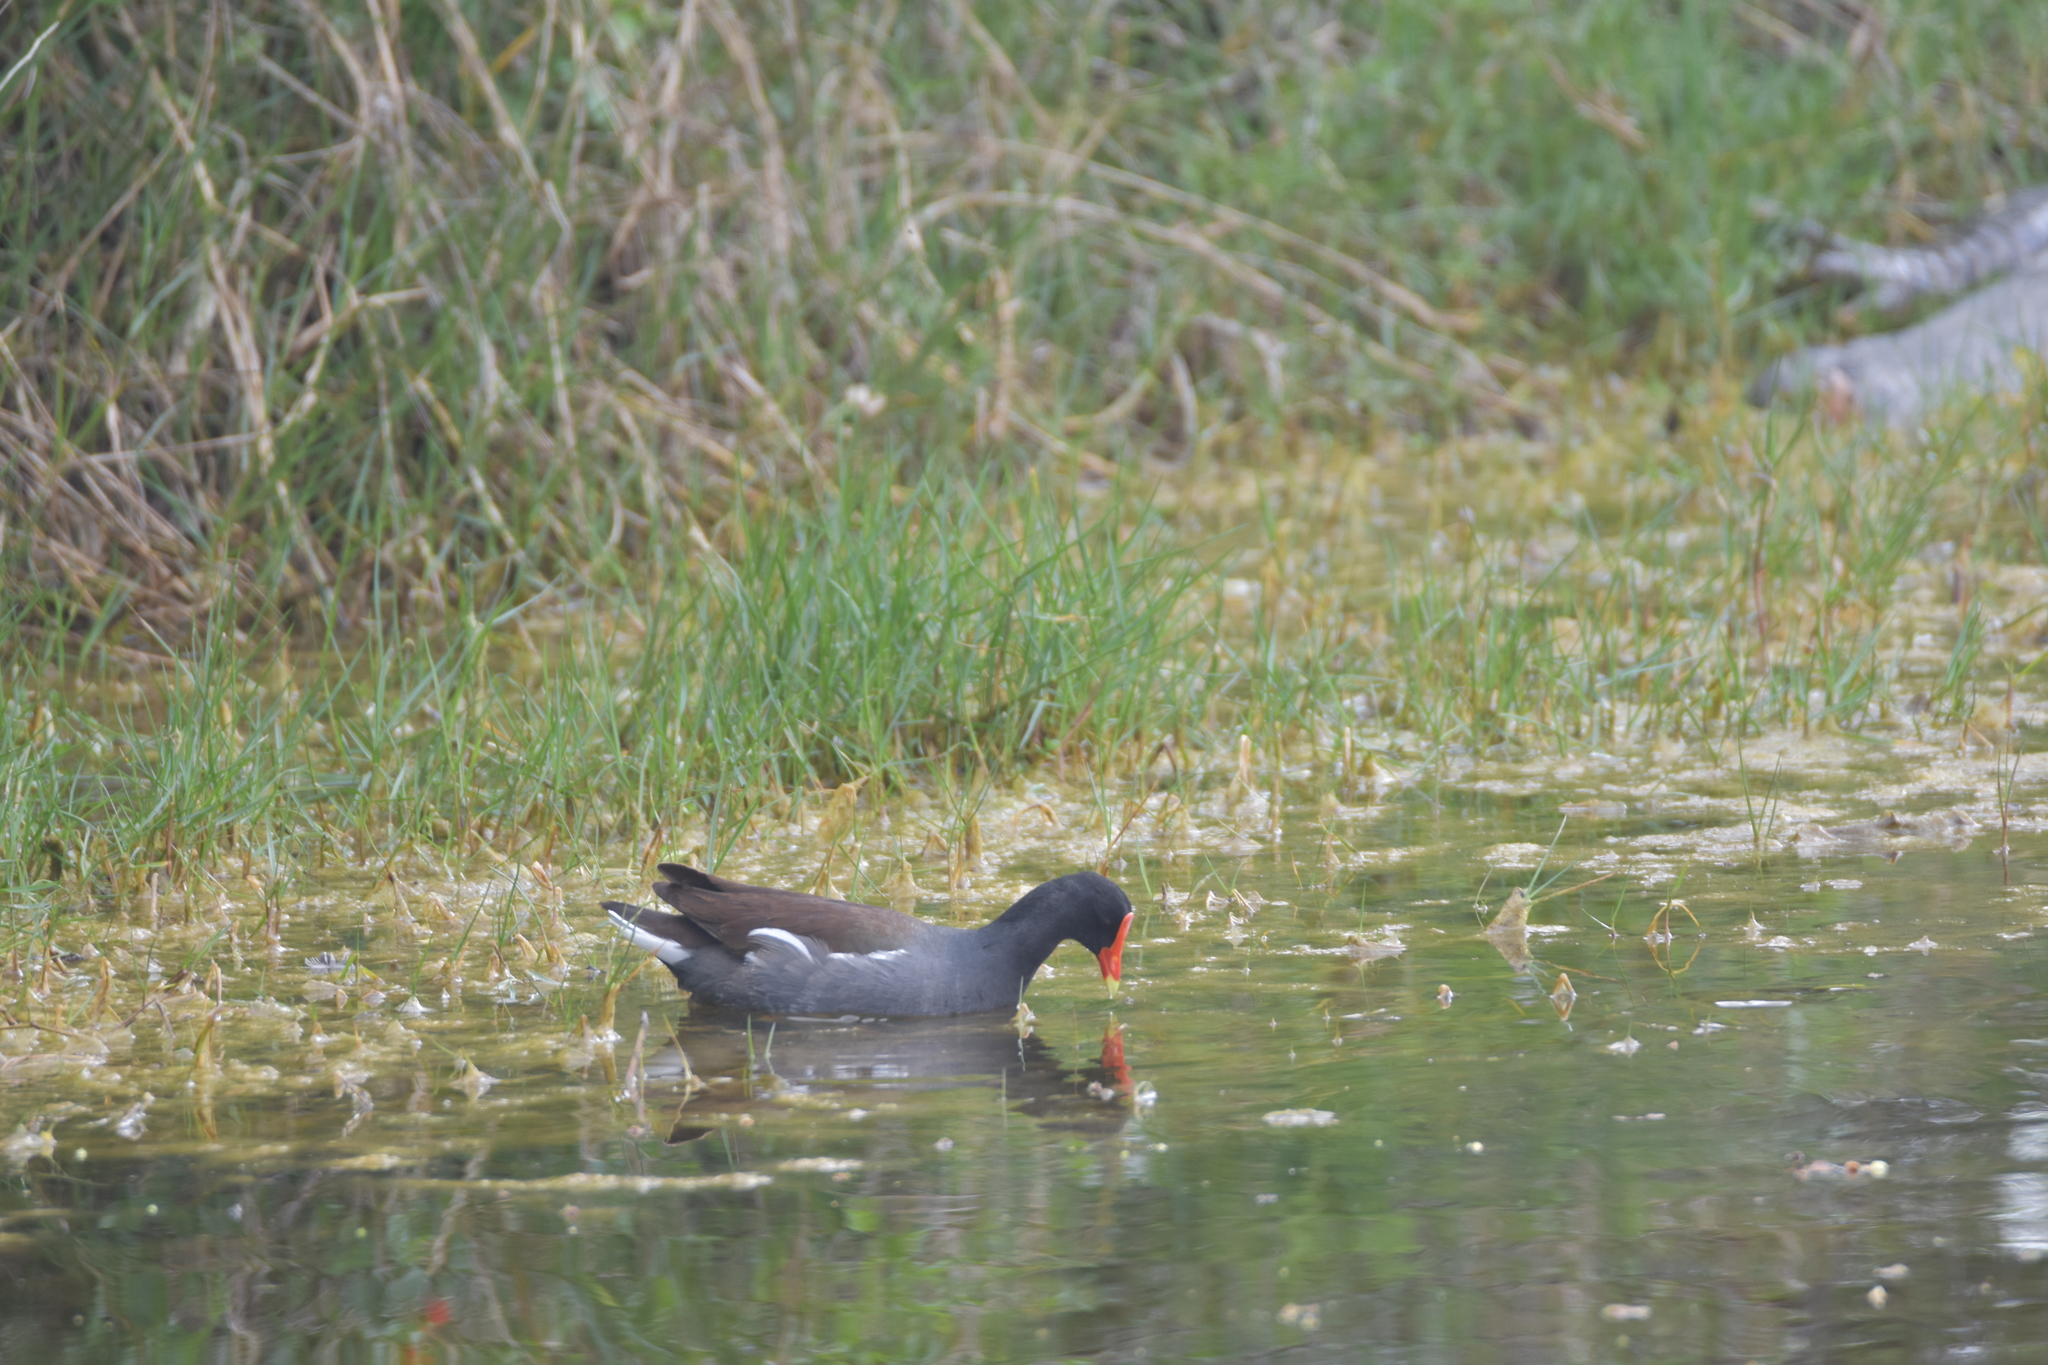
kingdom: Animalia
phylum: Chordata
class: Aves
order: Gruiformes
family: Rallidae
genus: Gallinula
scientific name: Gallinula chloropus
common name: Common moorhen
